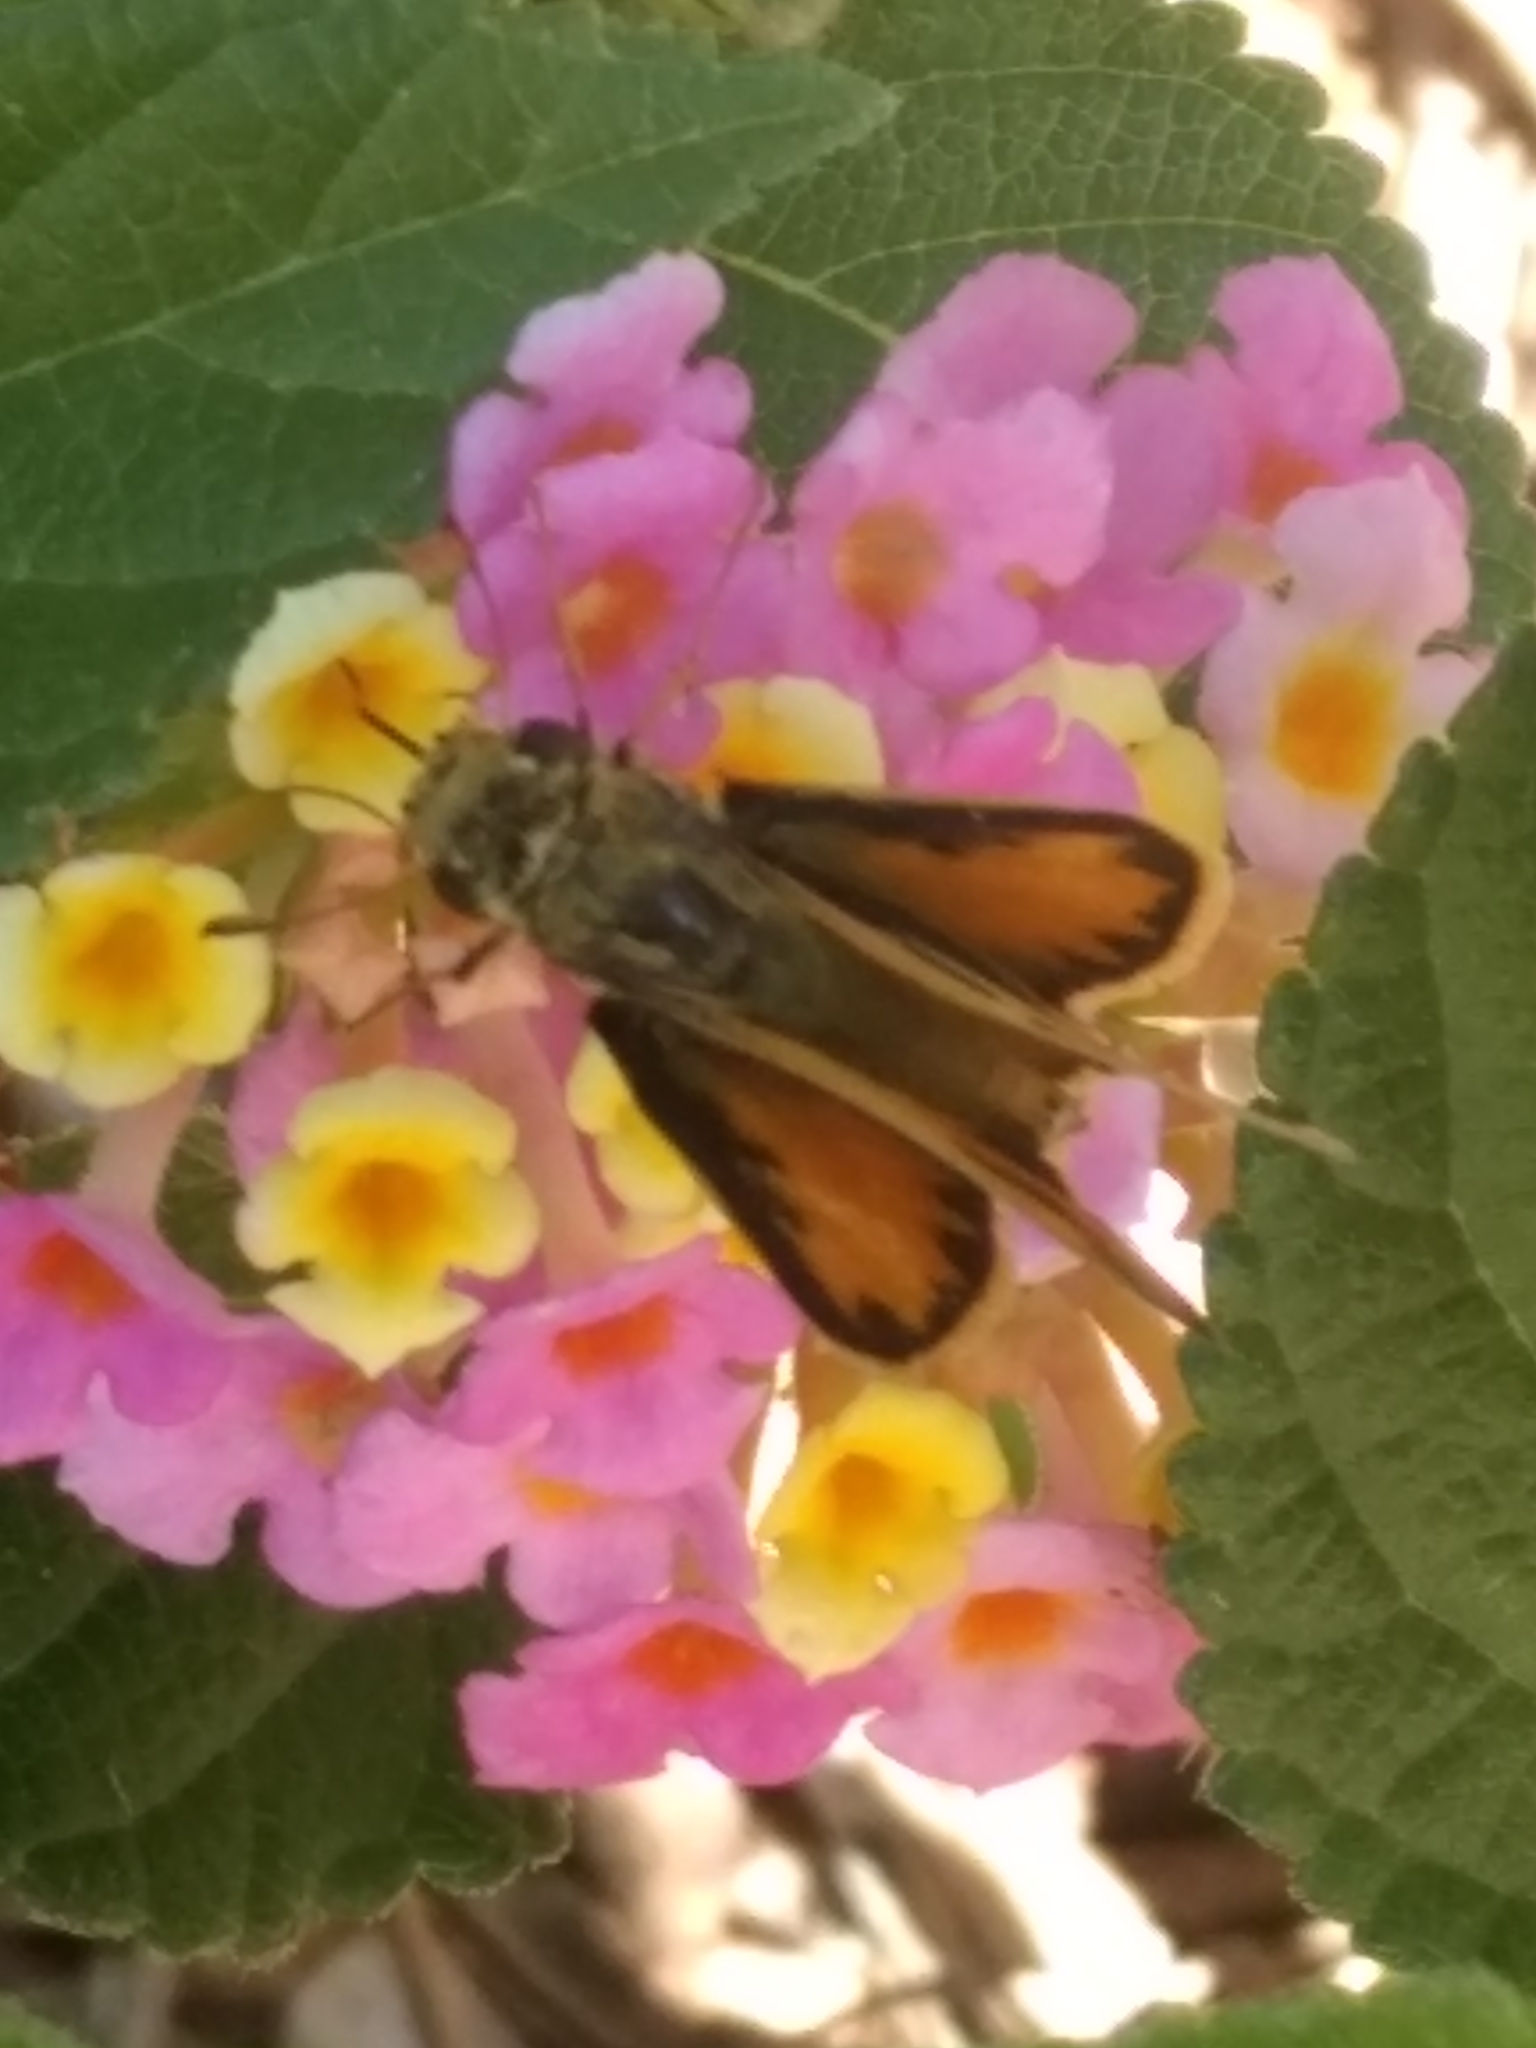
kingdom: Animalia
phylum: Arthropoda
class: Insecta
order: Lepidoptera
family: Hesperiidae
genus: Hylephila
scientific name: Hylephila phyleus
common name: Fiery skipper
